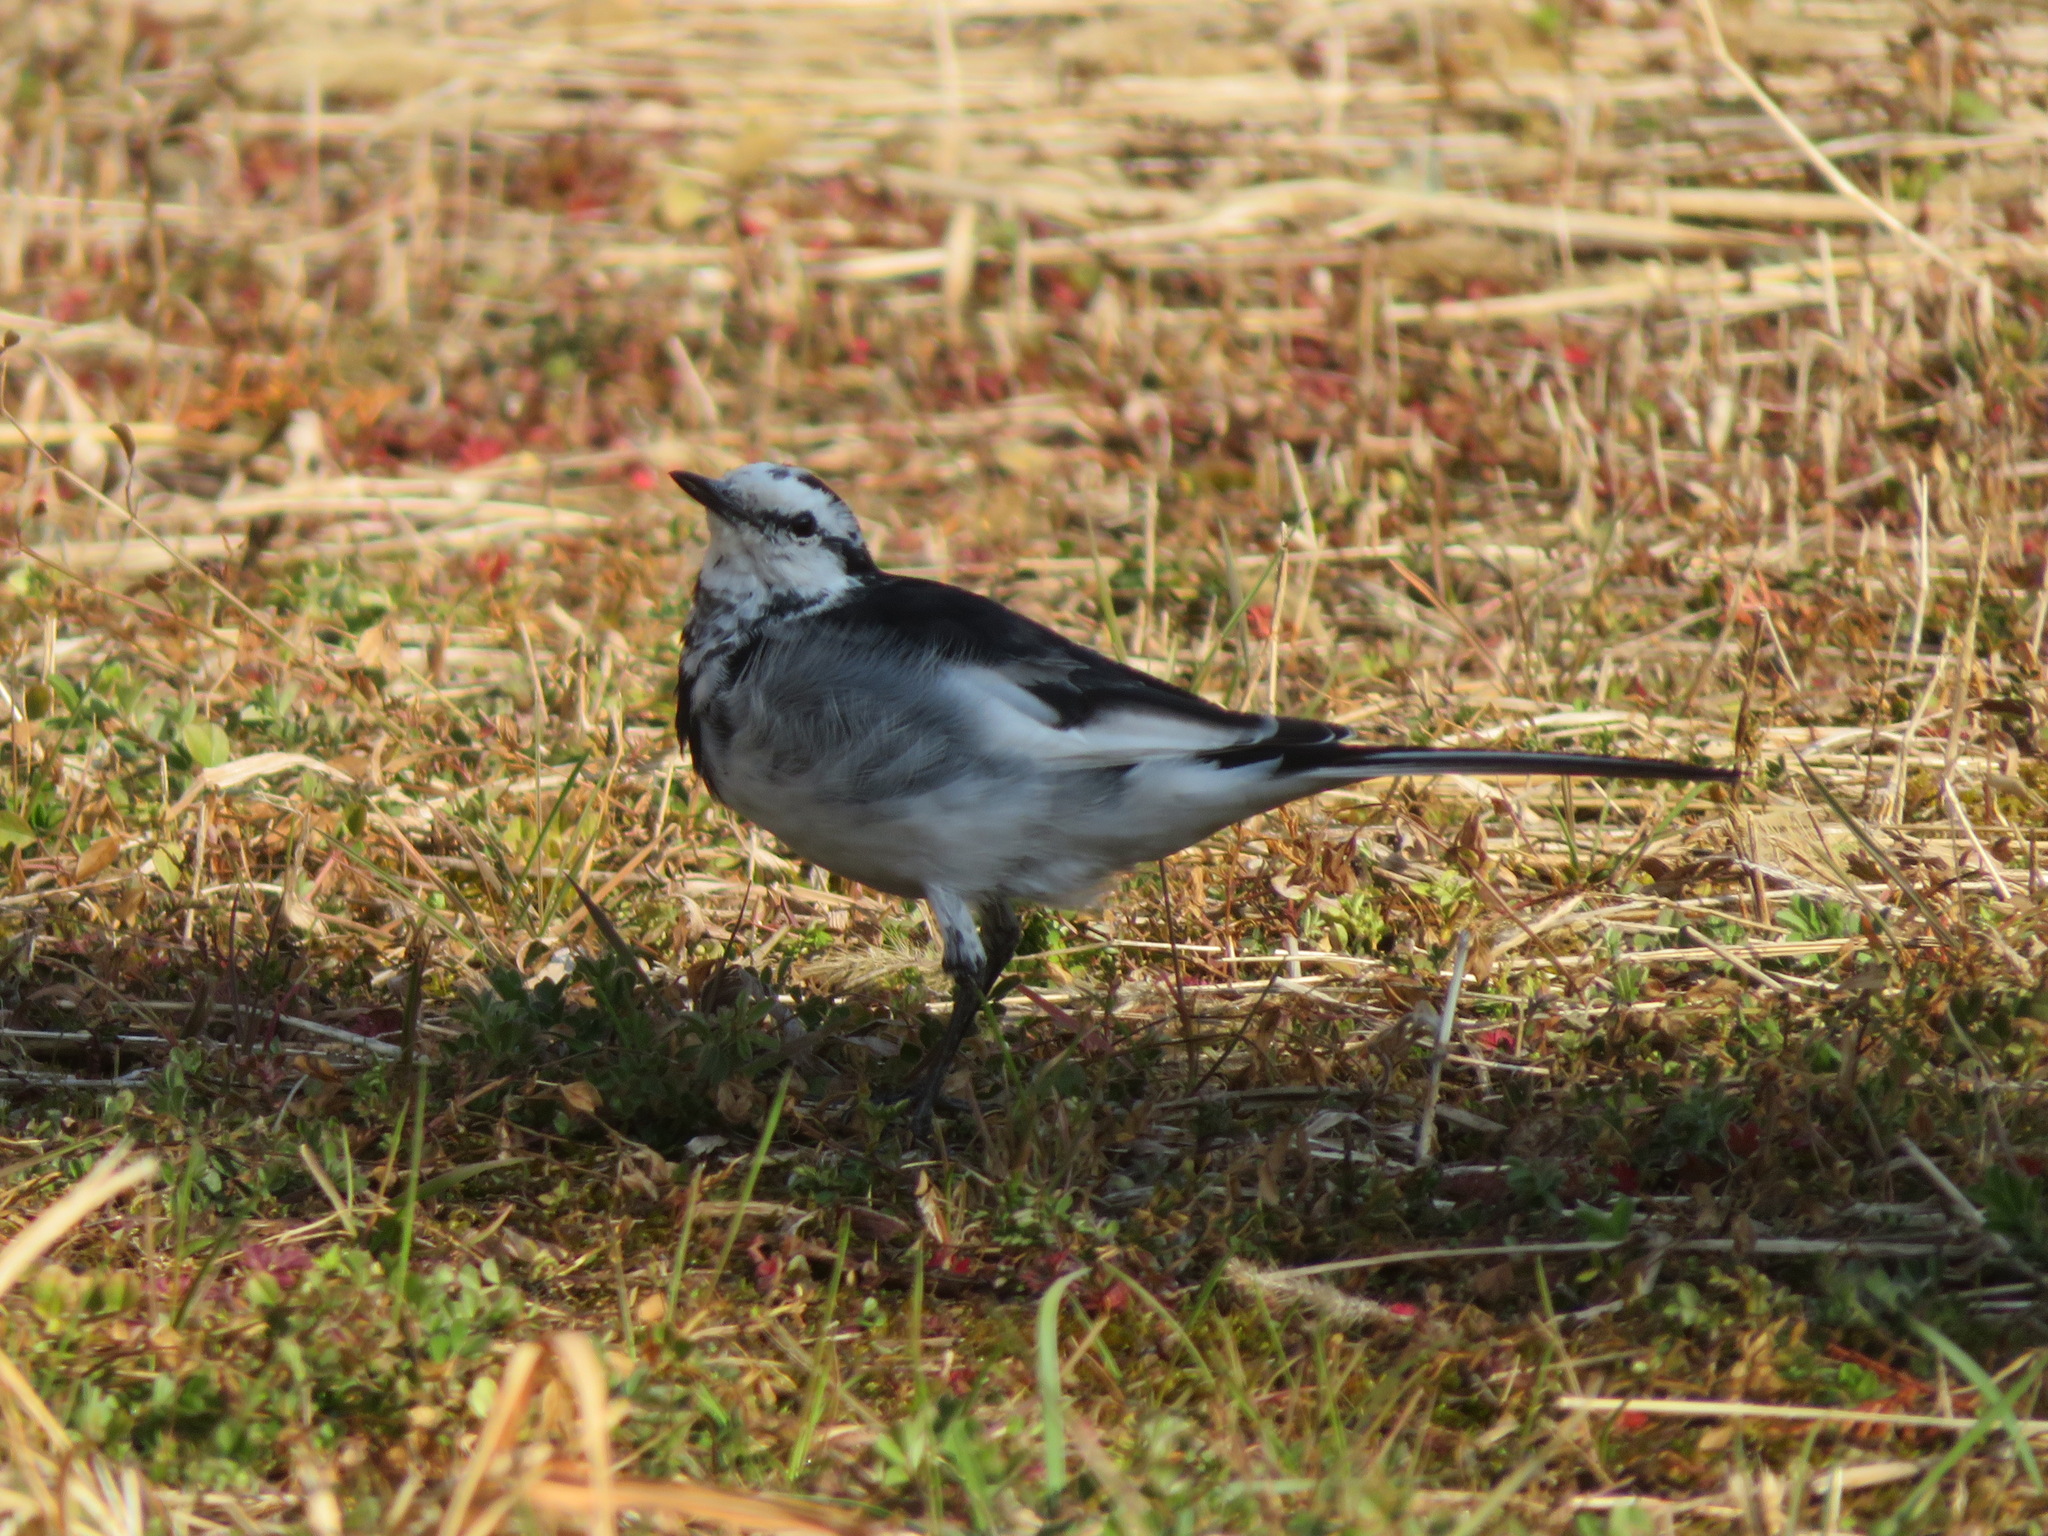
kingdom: Animalia
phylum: Chordata
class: Aves
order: Passeriformes
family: Motacillidae
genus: Motacilla
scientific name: Motacilla alba
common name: White wagtail
